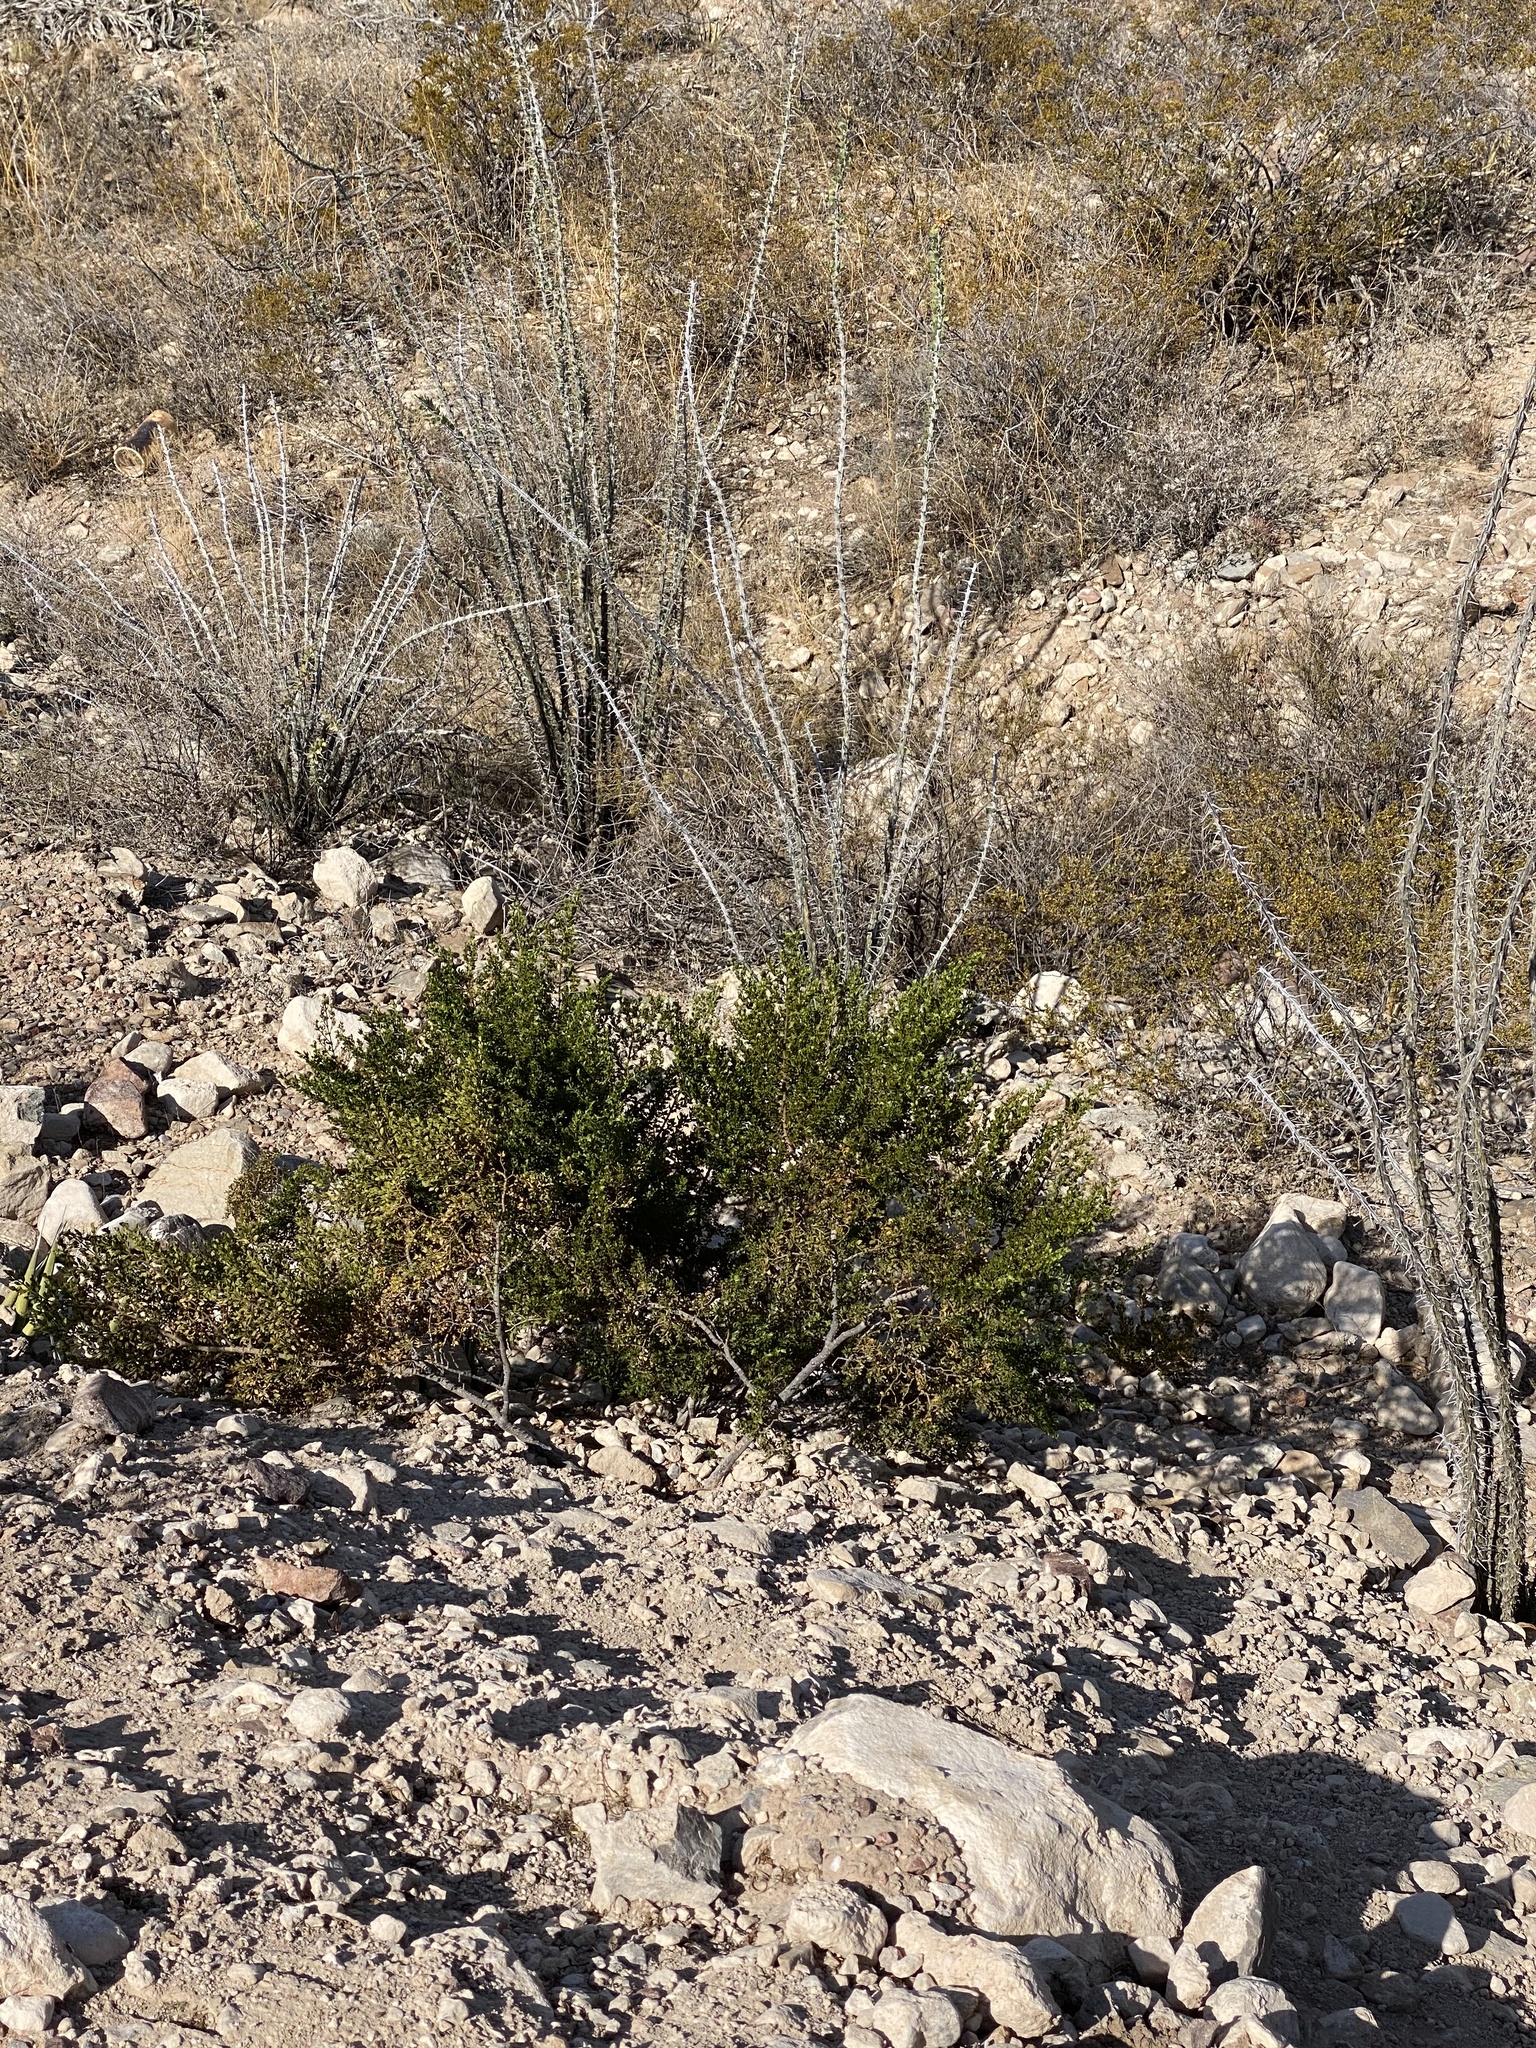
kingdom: Plantae
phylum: Tracheophyta
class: Magnoliopsida
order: Zygophyllales
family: Zygophyllaceae
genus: Larrea
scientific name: Larrea tridentata
